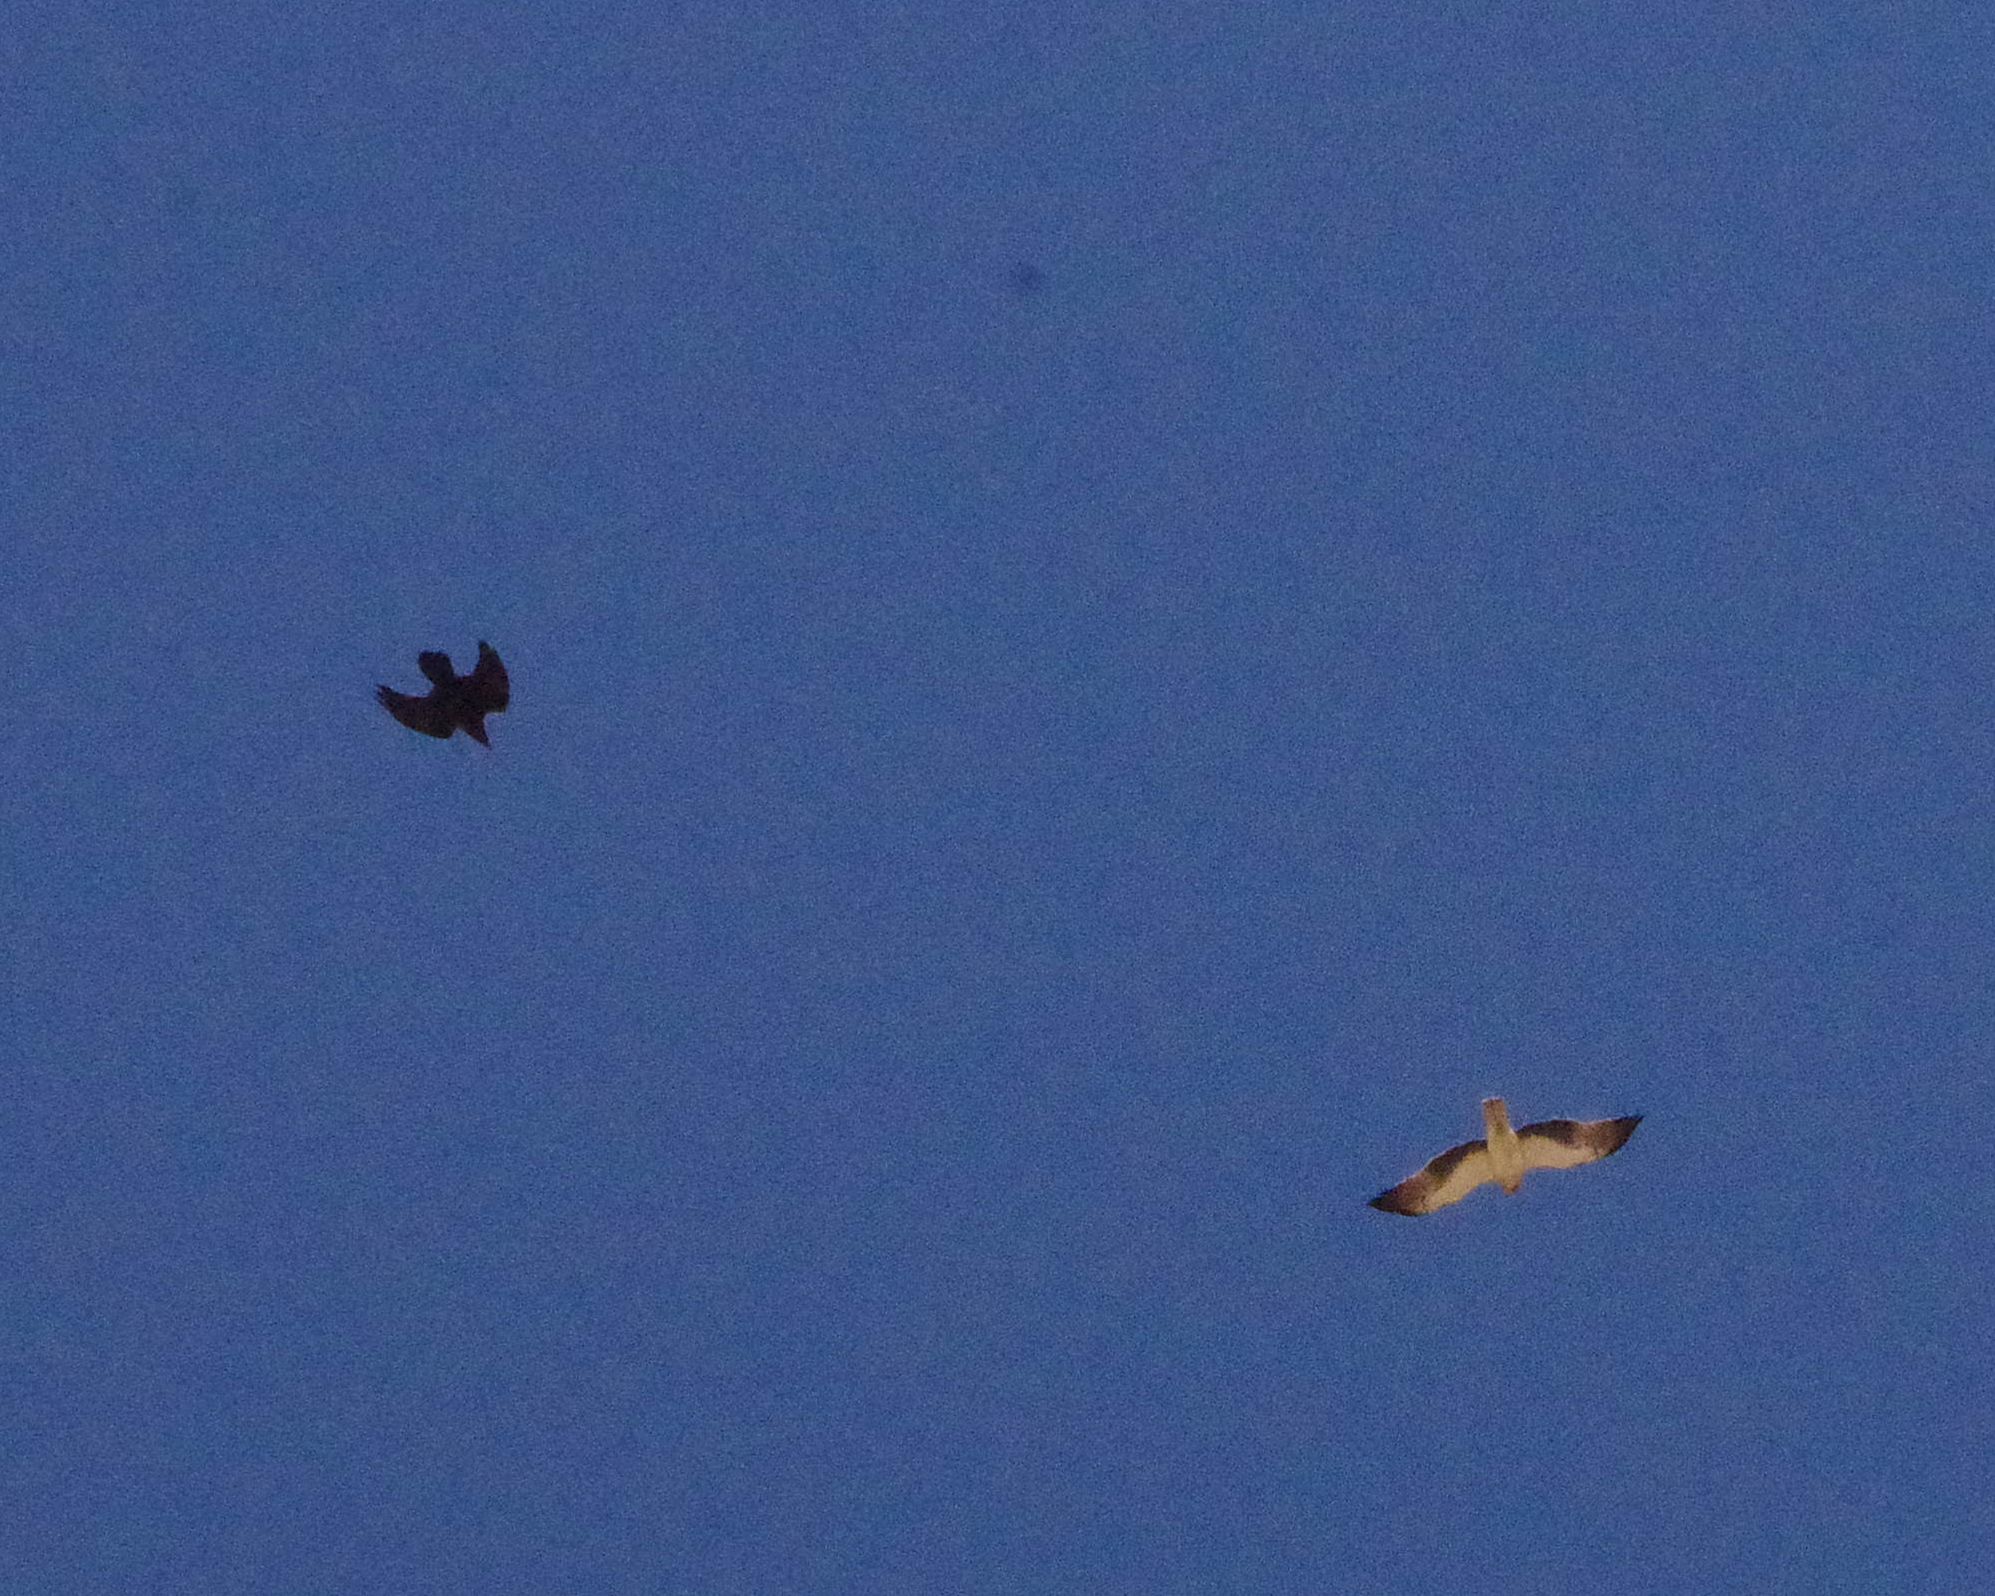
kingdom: Animalia
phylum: Chordata
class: Aves
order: Accipitriformes
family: Accipitridae
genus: Hieraaetus
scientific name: Hieraaetus pennatus
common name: Booted eagle
